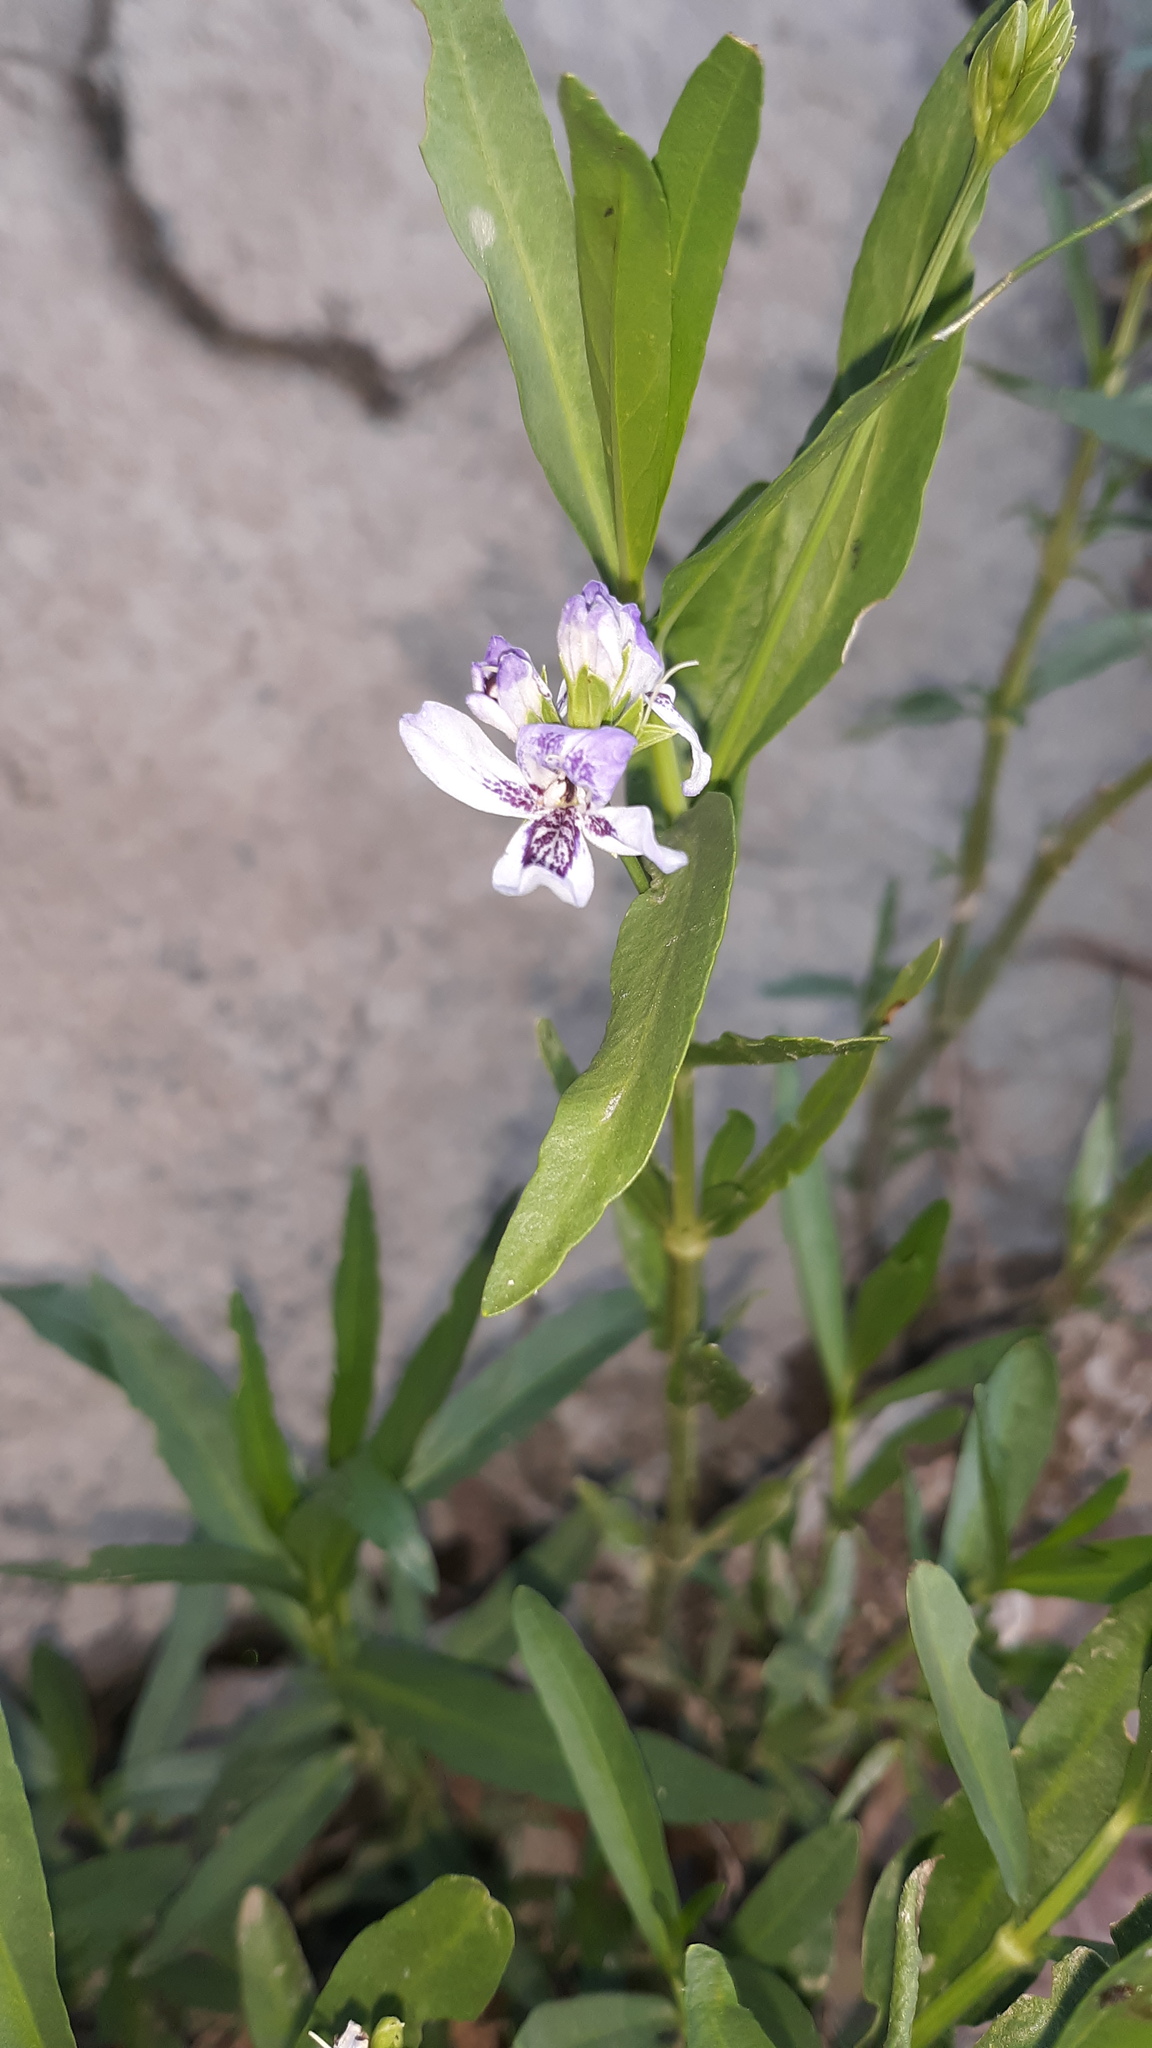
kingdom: Plantae
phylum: Tracheophyta
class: Magnoliopsida
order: Lamiales
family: Acanthaceae
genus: Dianthera
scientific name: Dianthera americana
